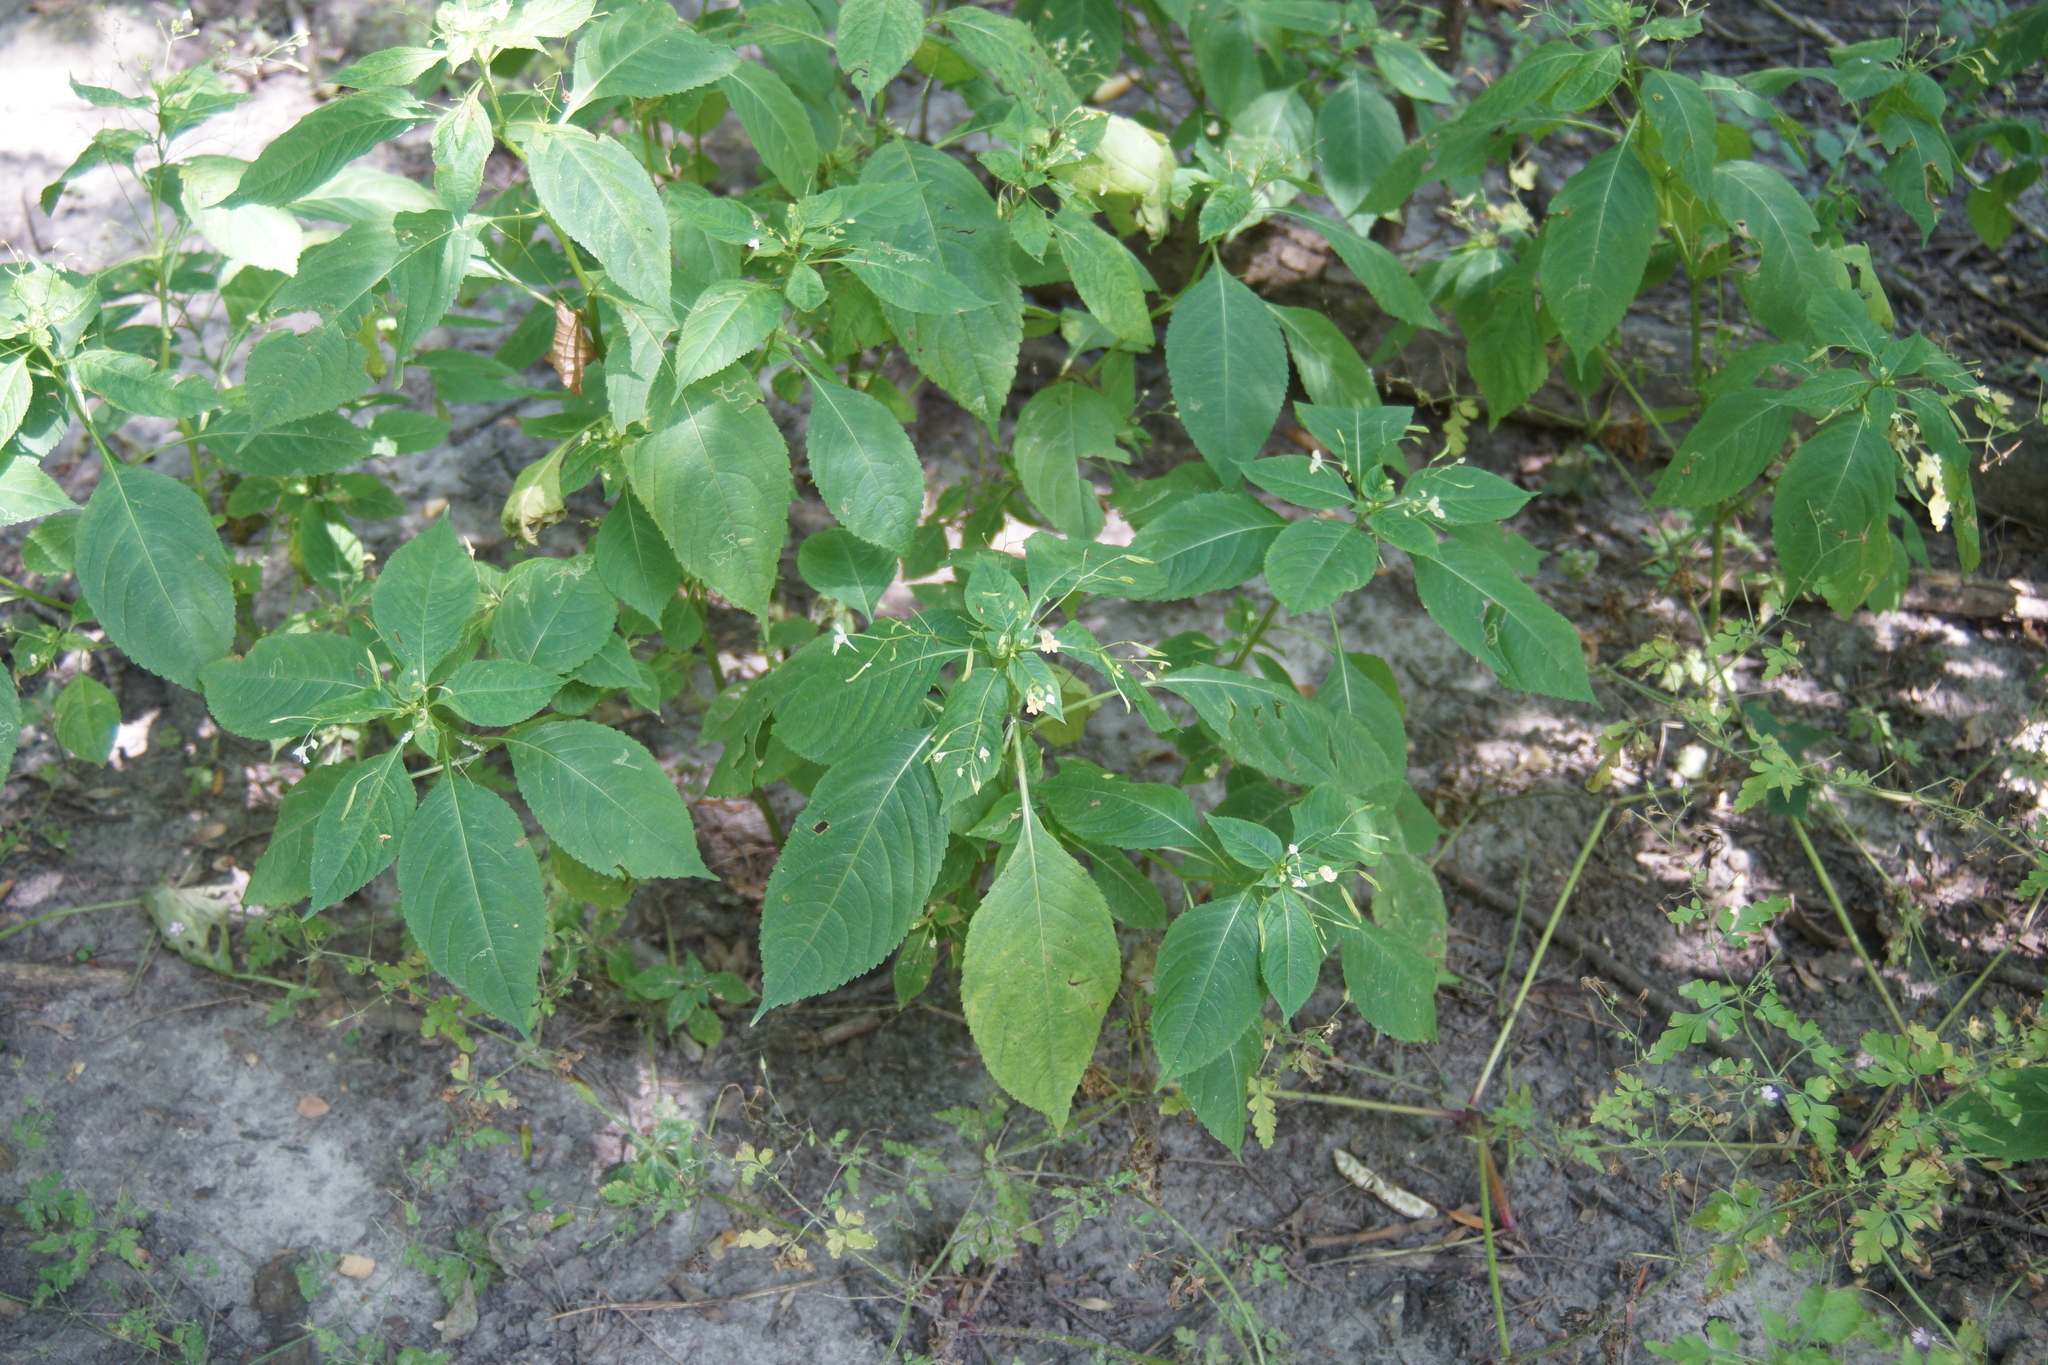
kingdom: Plantae
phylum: Tracheophyta
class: Magnoliopsida
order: Ericales
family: Balsaminaceae
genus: Impatiens
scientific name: Impatiens parviflora
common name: Small balsam
